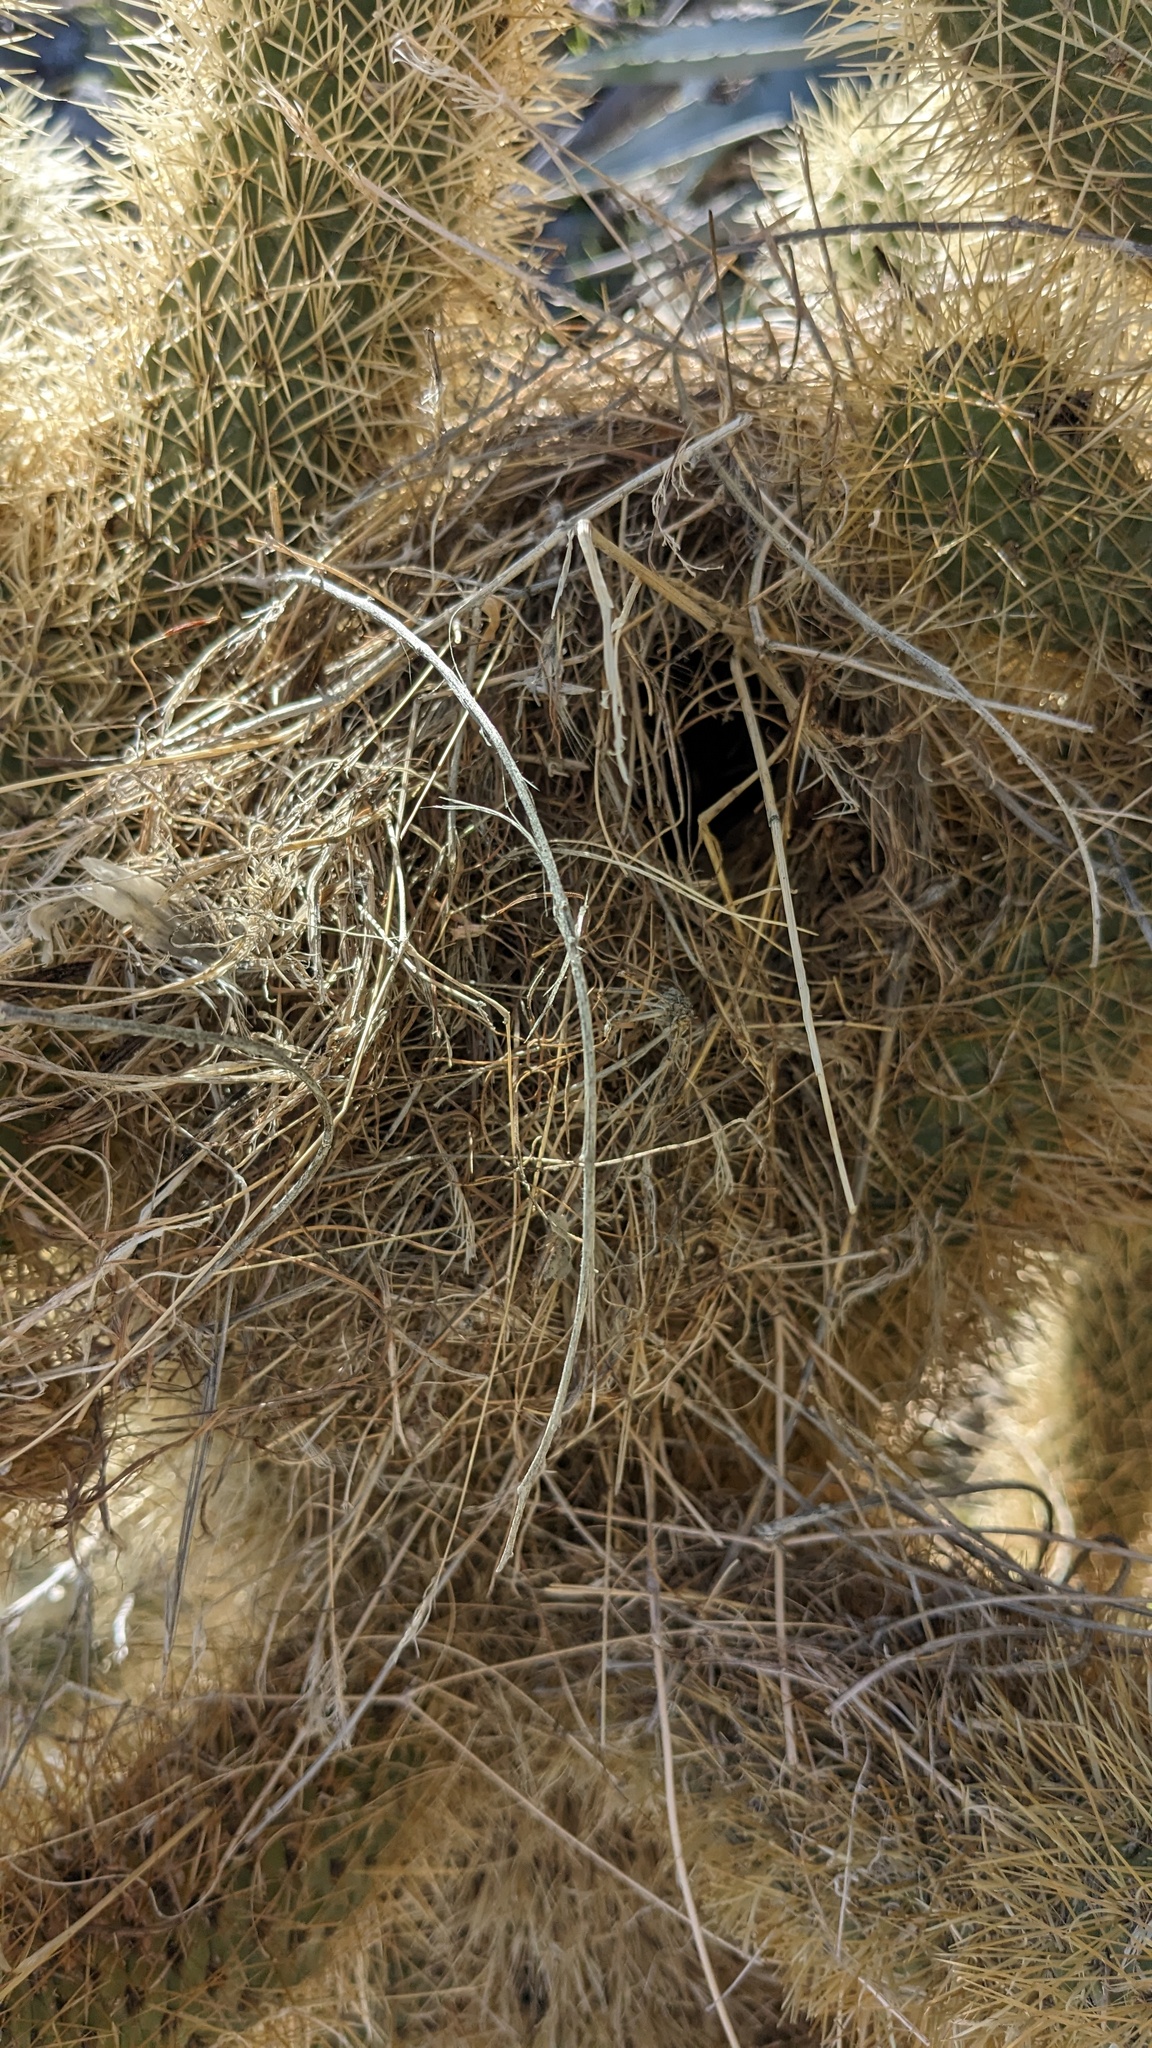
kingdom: Animalia
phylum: Chordata
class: Aves
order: Passeriformes
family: Troglodytidae
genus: Campylorhynchus
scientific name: Campylorhynchus brunneicapillus
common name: Cactus wren
